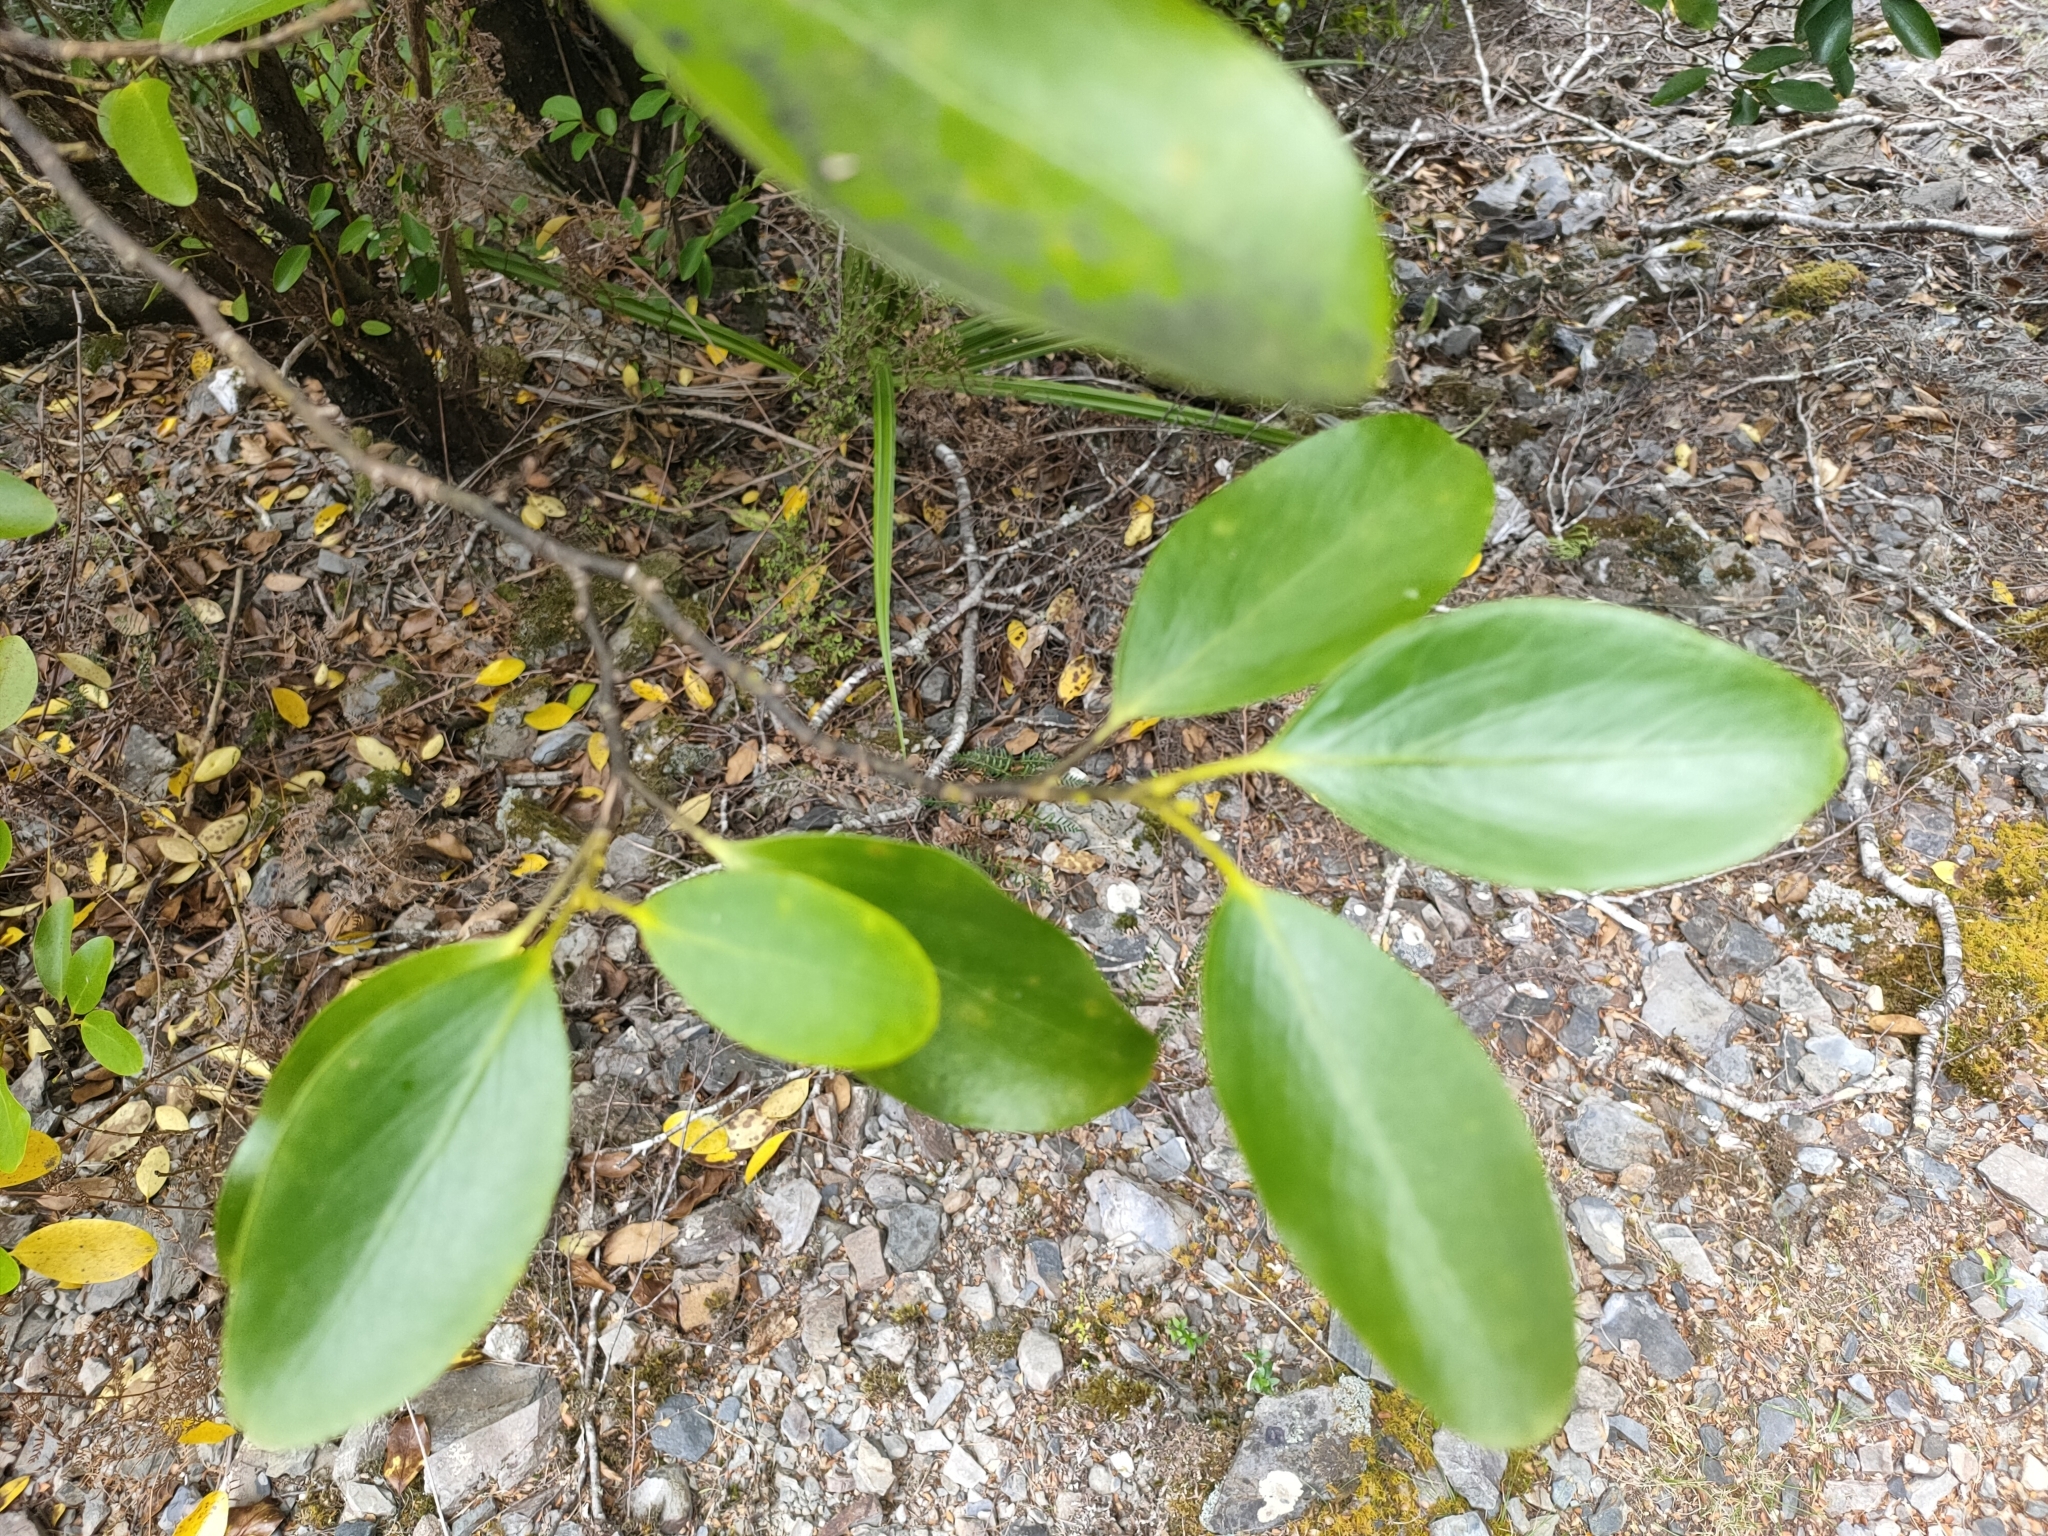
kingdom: Plantae
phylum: Tracheophyta
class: Magnoliopsida
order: Apiales
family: Griseliniaceae
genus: Griselinia
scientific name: Griselinia littoralis
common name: New zealand broadleaf
